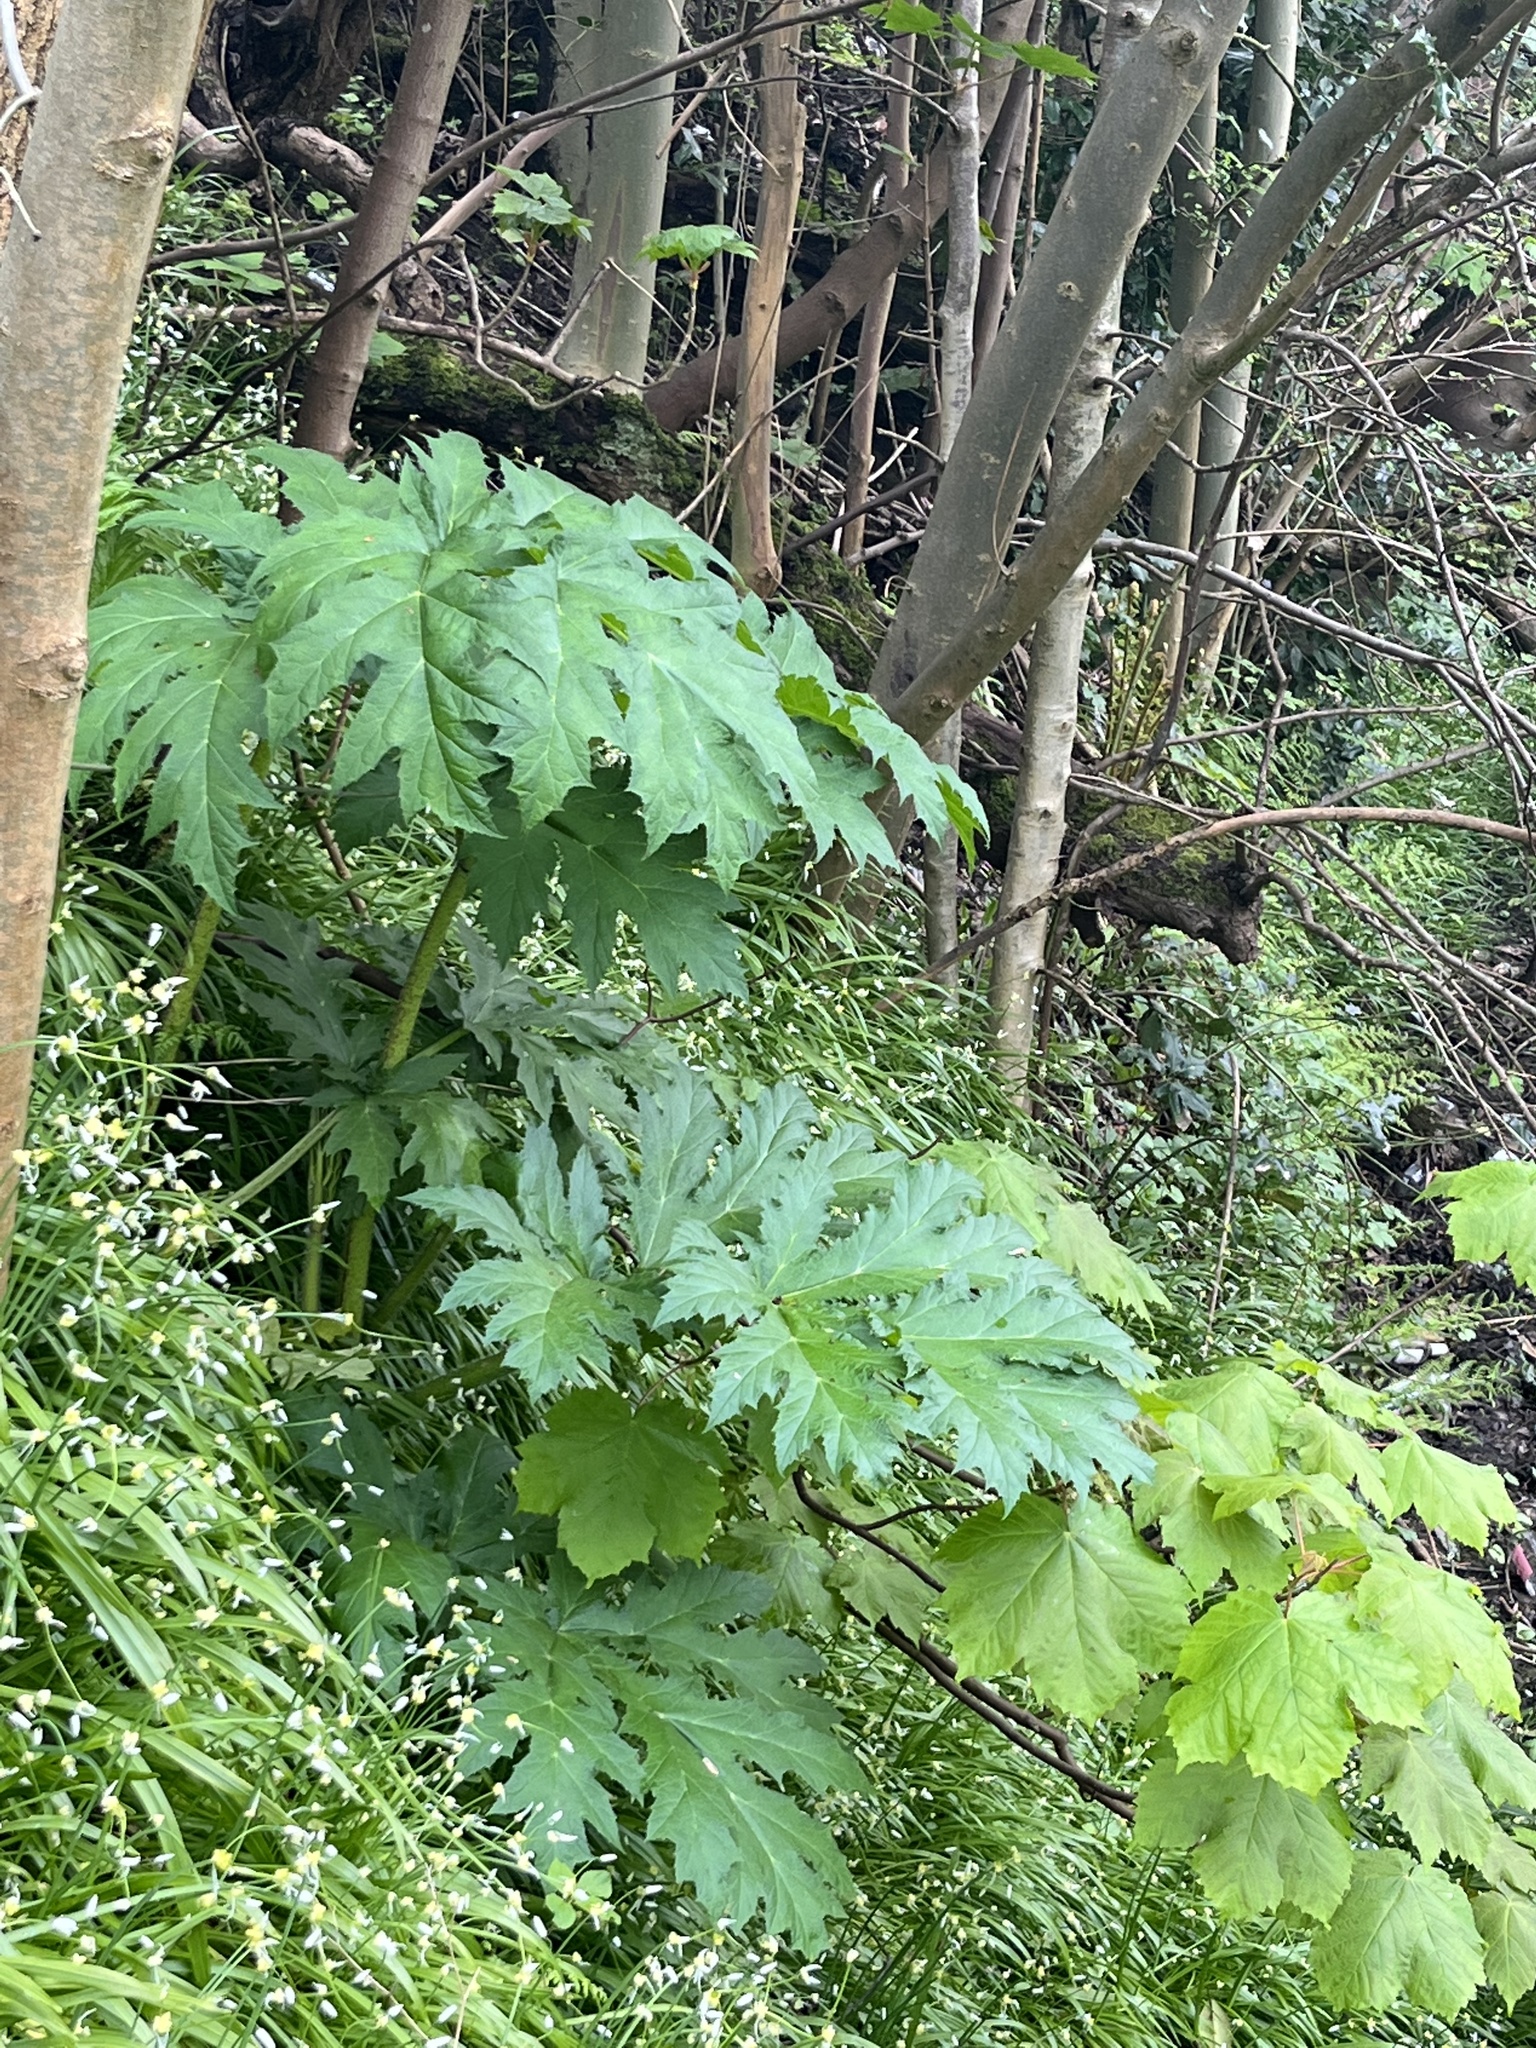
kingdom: Plantae
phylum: Tracheophyta
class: Magnoliopsida
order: Apiales
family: Apiaceae
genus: Heracleum
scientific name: Heracleum mantegazzianum
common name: Giant hogweed
